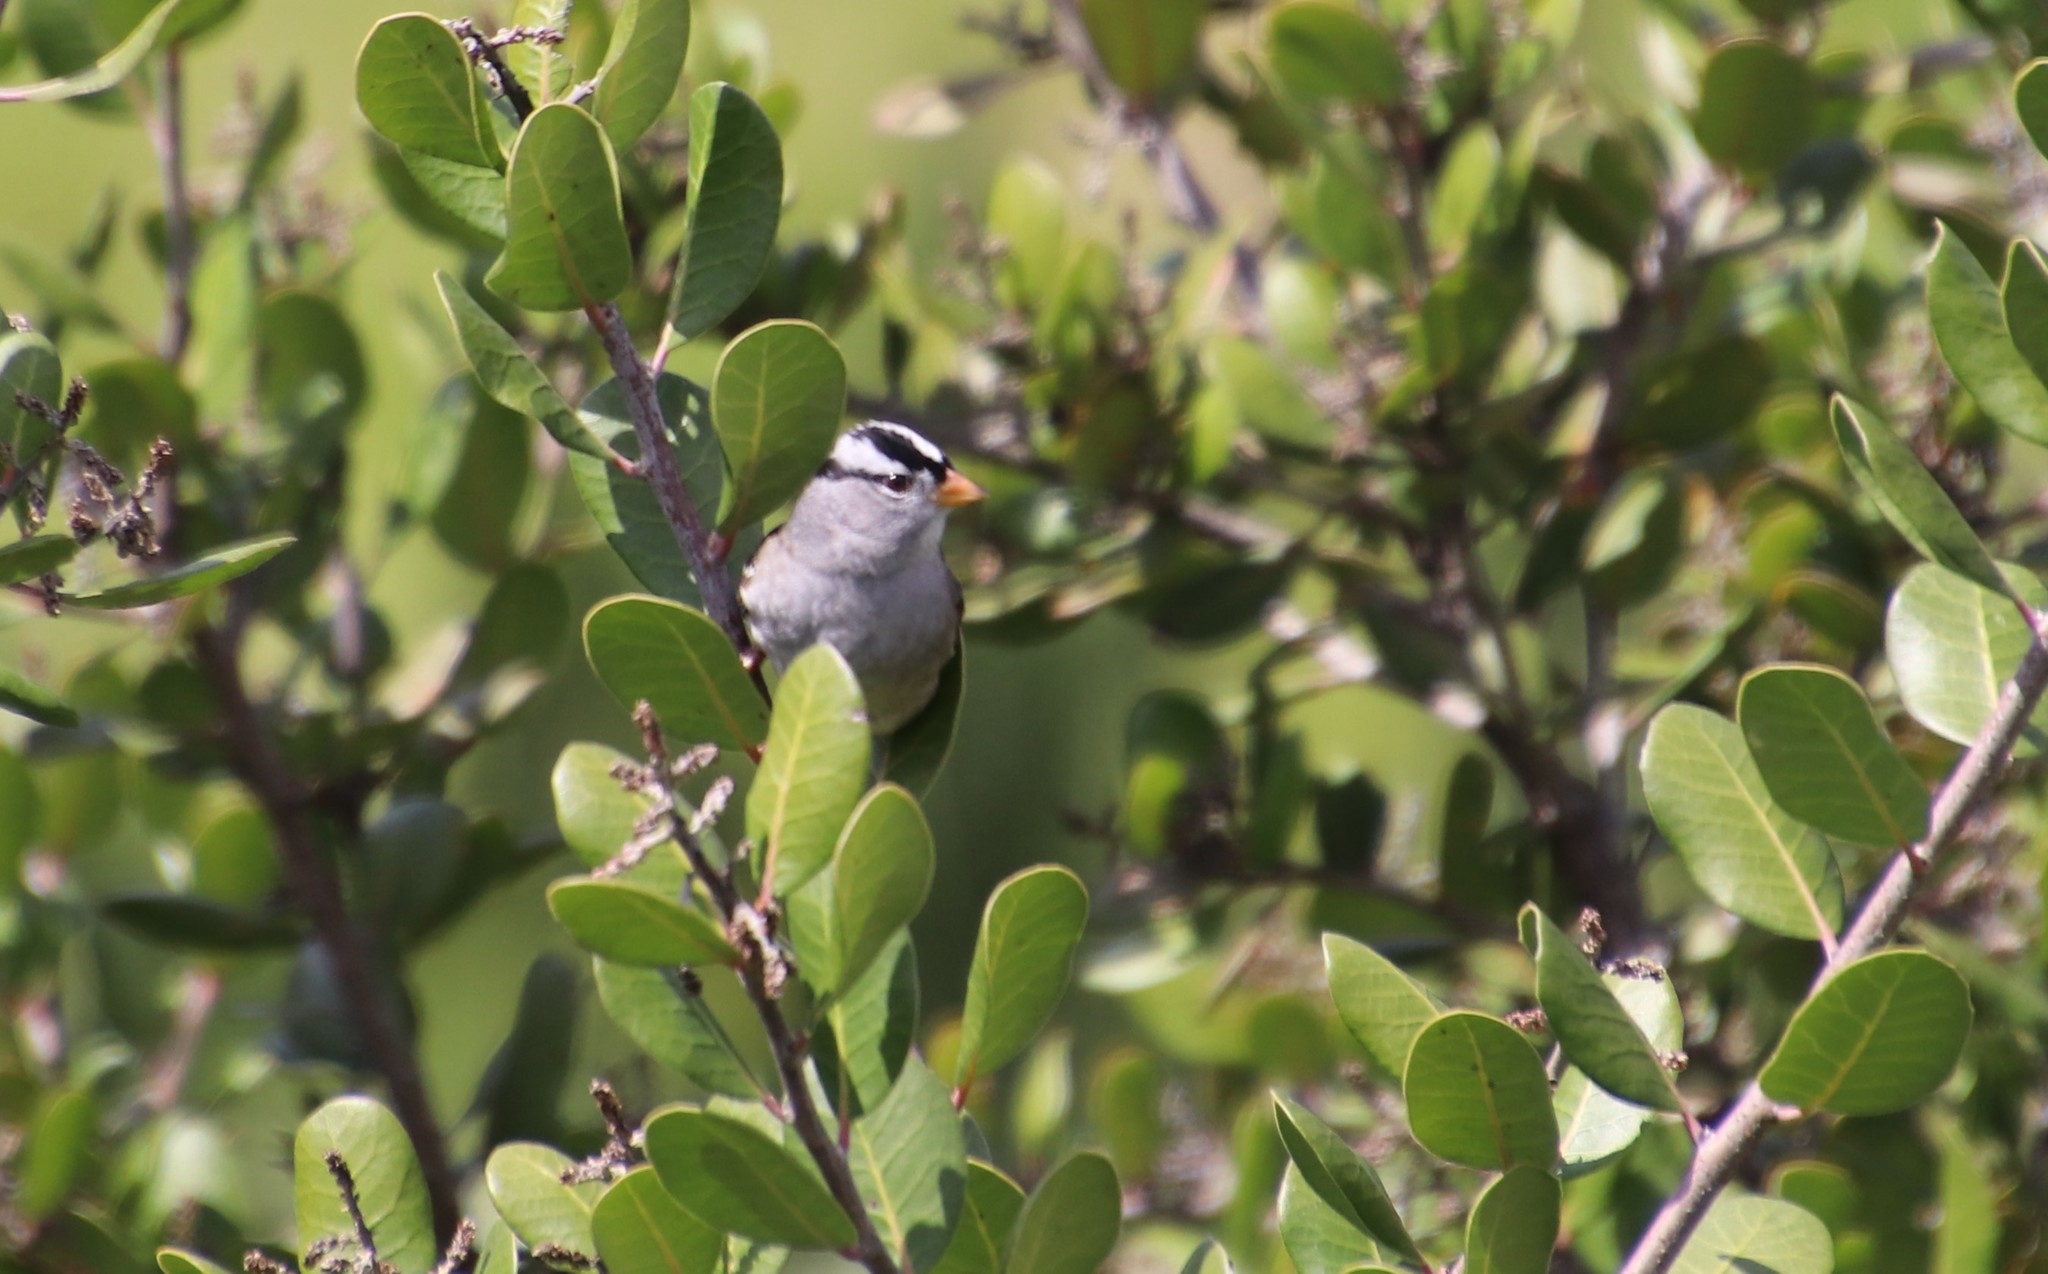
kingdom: Animalia
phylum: Chordata
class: Aves
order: Passeriformes
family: Passerellidae
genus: Zonotrichia
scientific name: Zonotrichia leucophrys
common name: White-crowned sparrow
